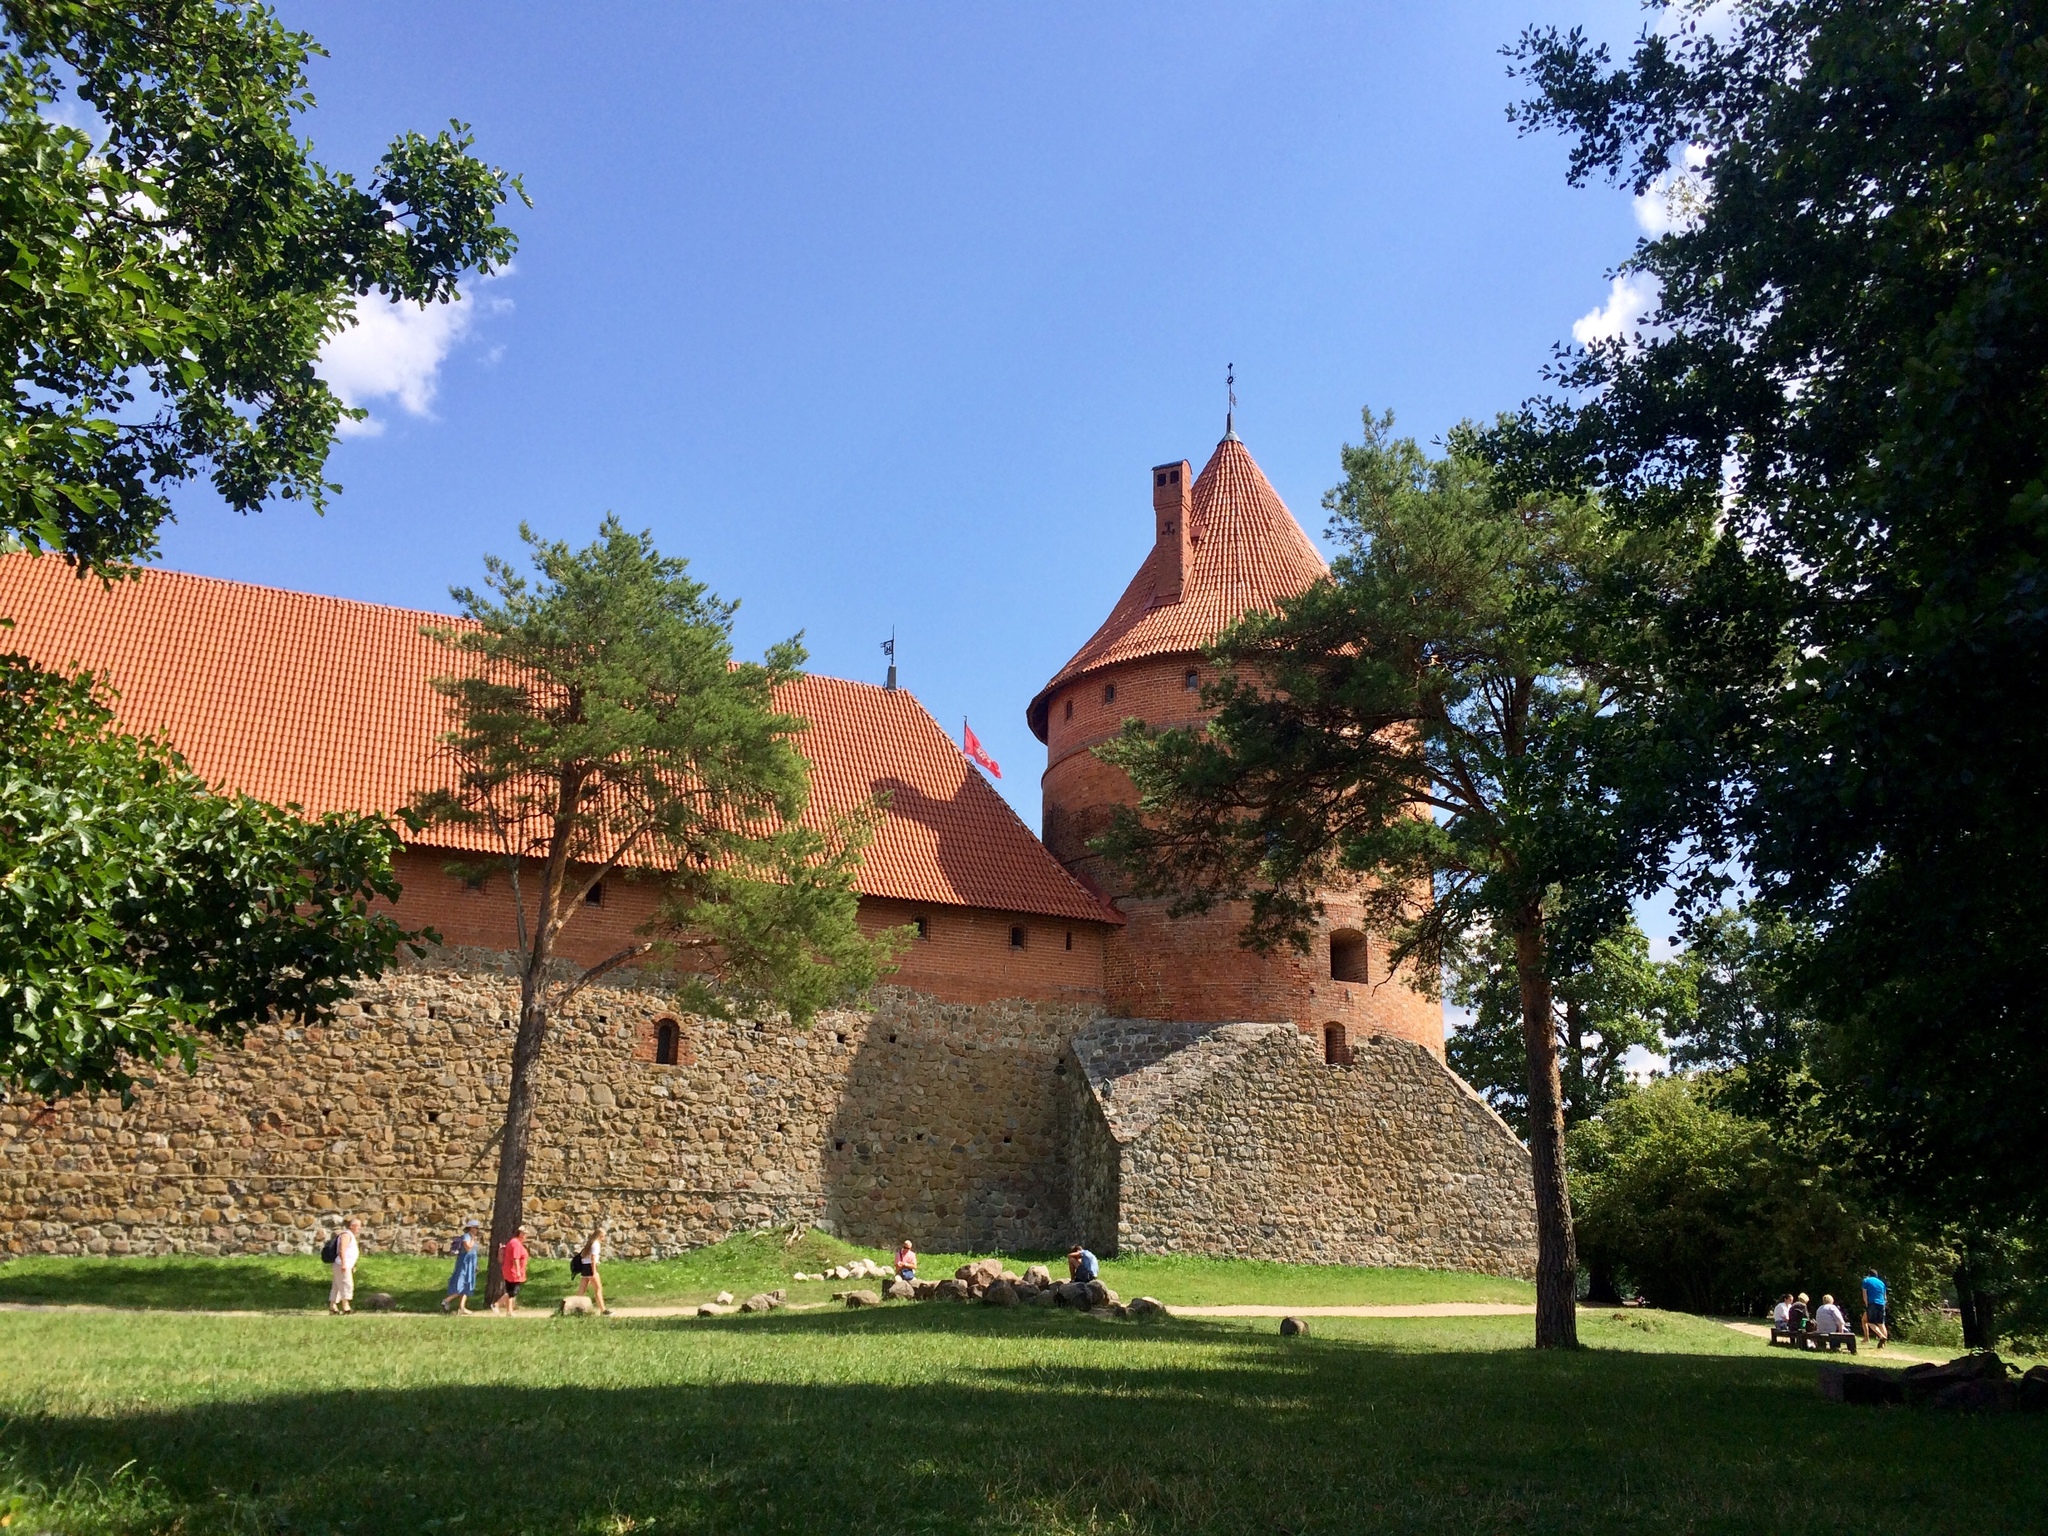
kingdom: Plantae
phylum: Tracheophyta
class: Pinopsida
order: Pinales
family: Pinaceae
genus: Pinus
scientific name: Pinus sylvestris
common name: Scots pine
